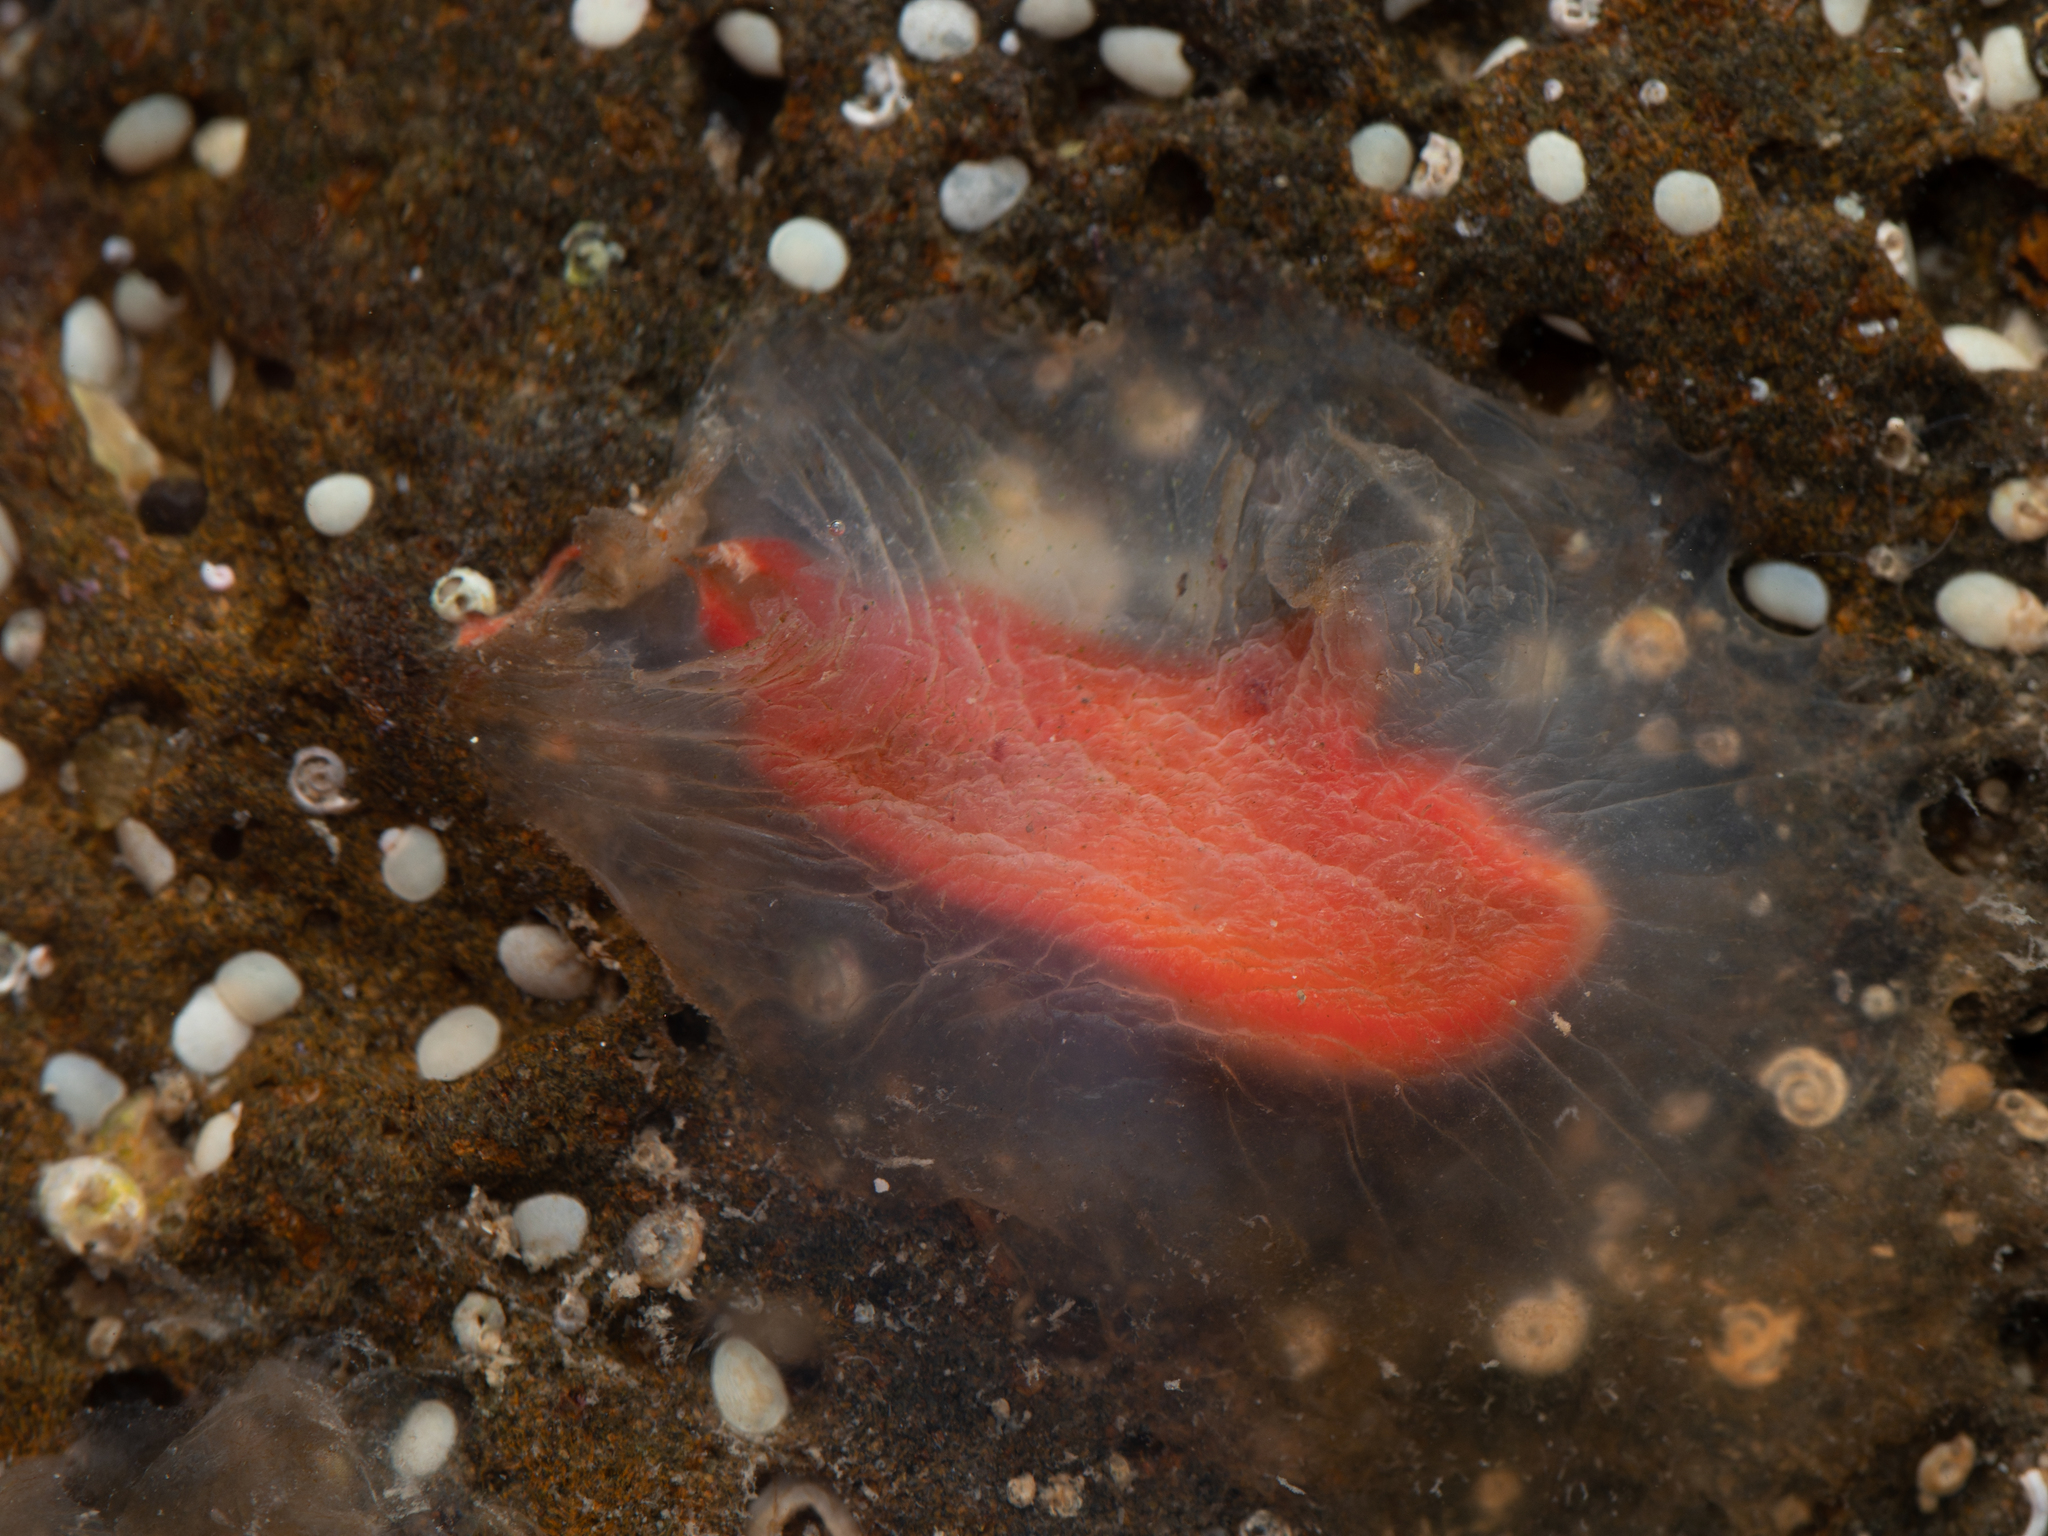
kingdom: Animalia
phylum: Chordata
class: Ascidiacea
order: Phlebobranchia
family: Corellidae
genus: Corella
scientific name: Corella eumyota
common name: Orange-tipped sea squirt
